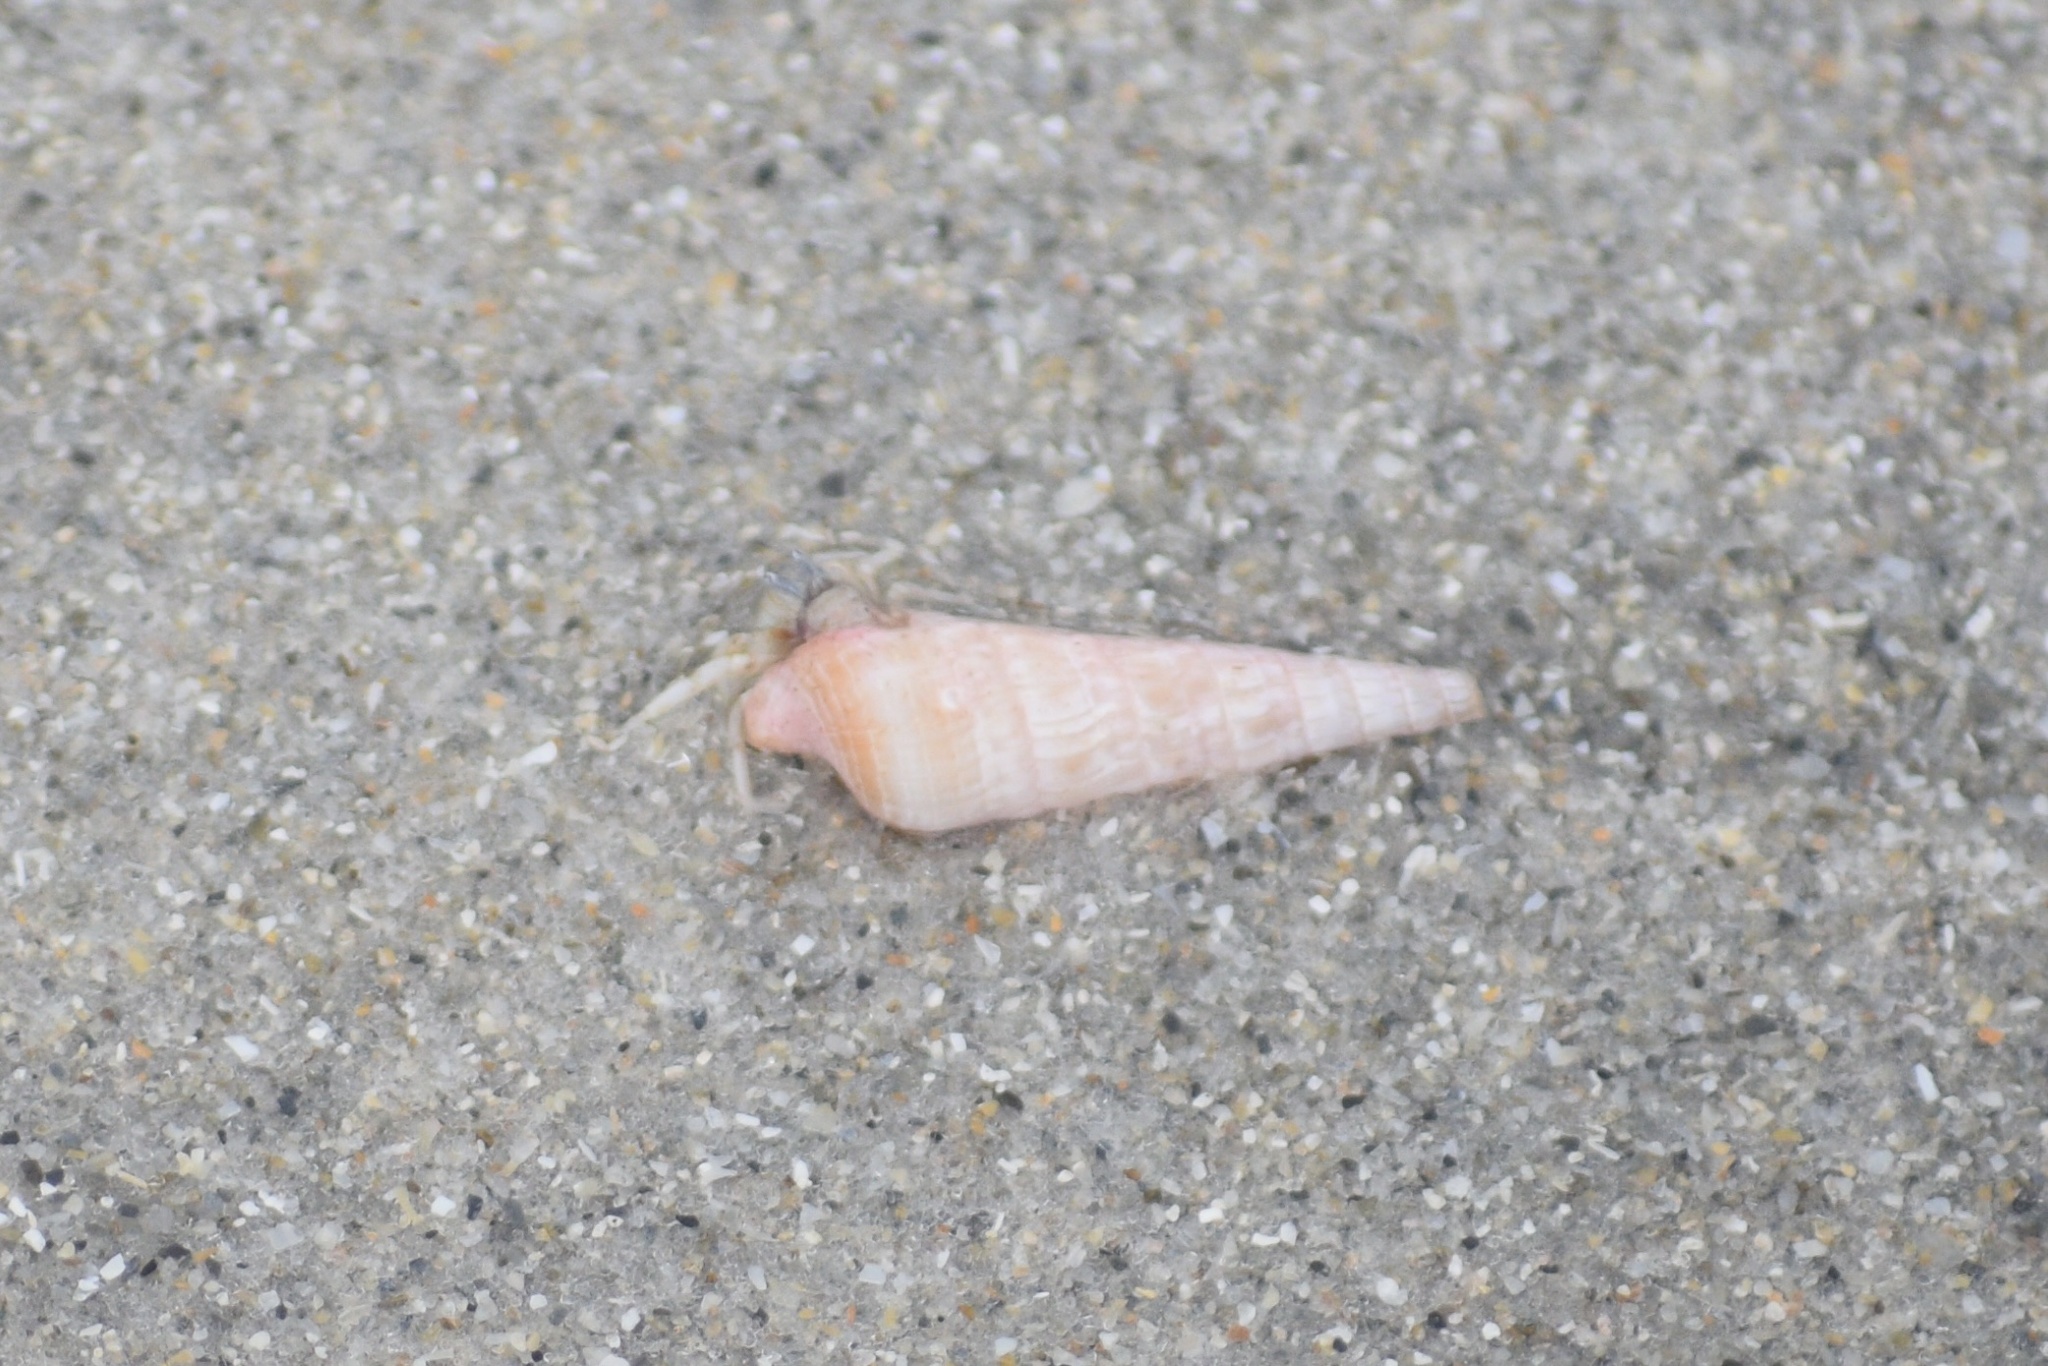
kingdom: Animalia
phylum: Arthropoda
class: Malacostraca
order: Decapoda
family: Diogenidae
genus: Areopaguristes
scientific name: Areopaguristes hummi
